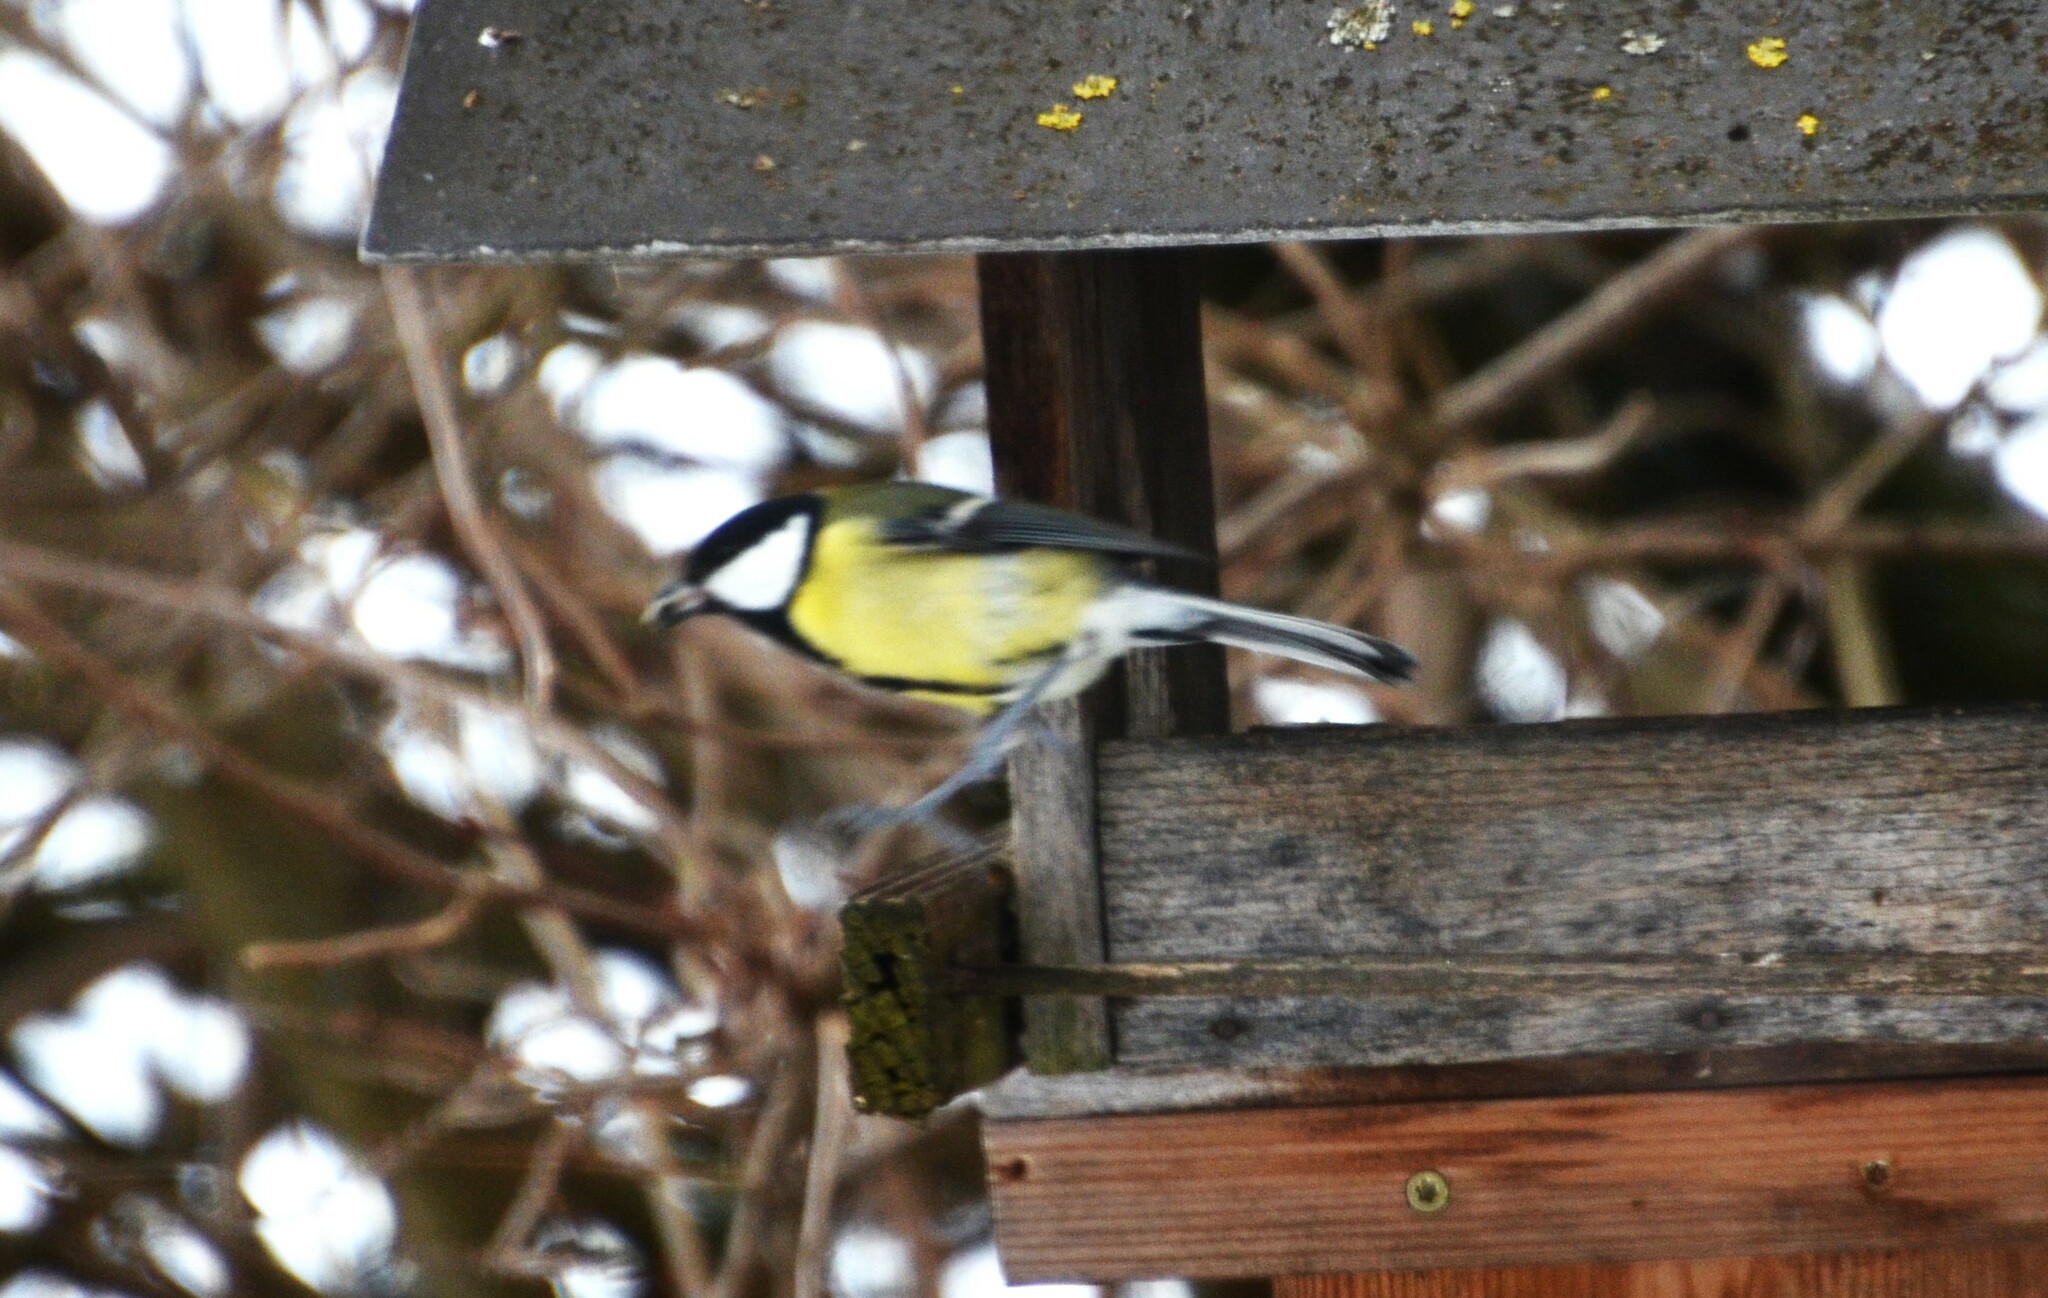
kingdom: Animalia
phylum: Chordata
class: Aves
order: Passeriformes
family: Paridae
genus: Parus
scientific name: Parus major
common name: Great tit
